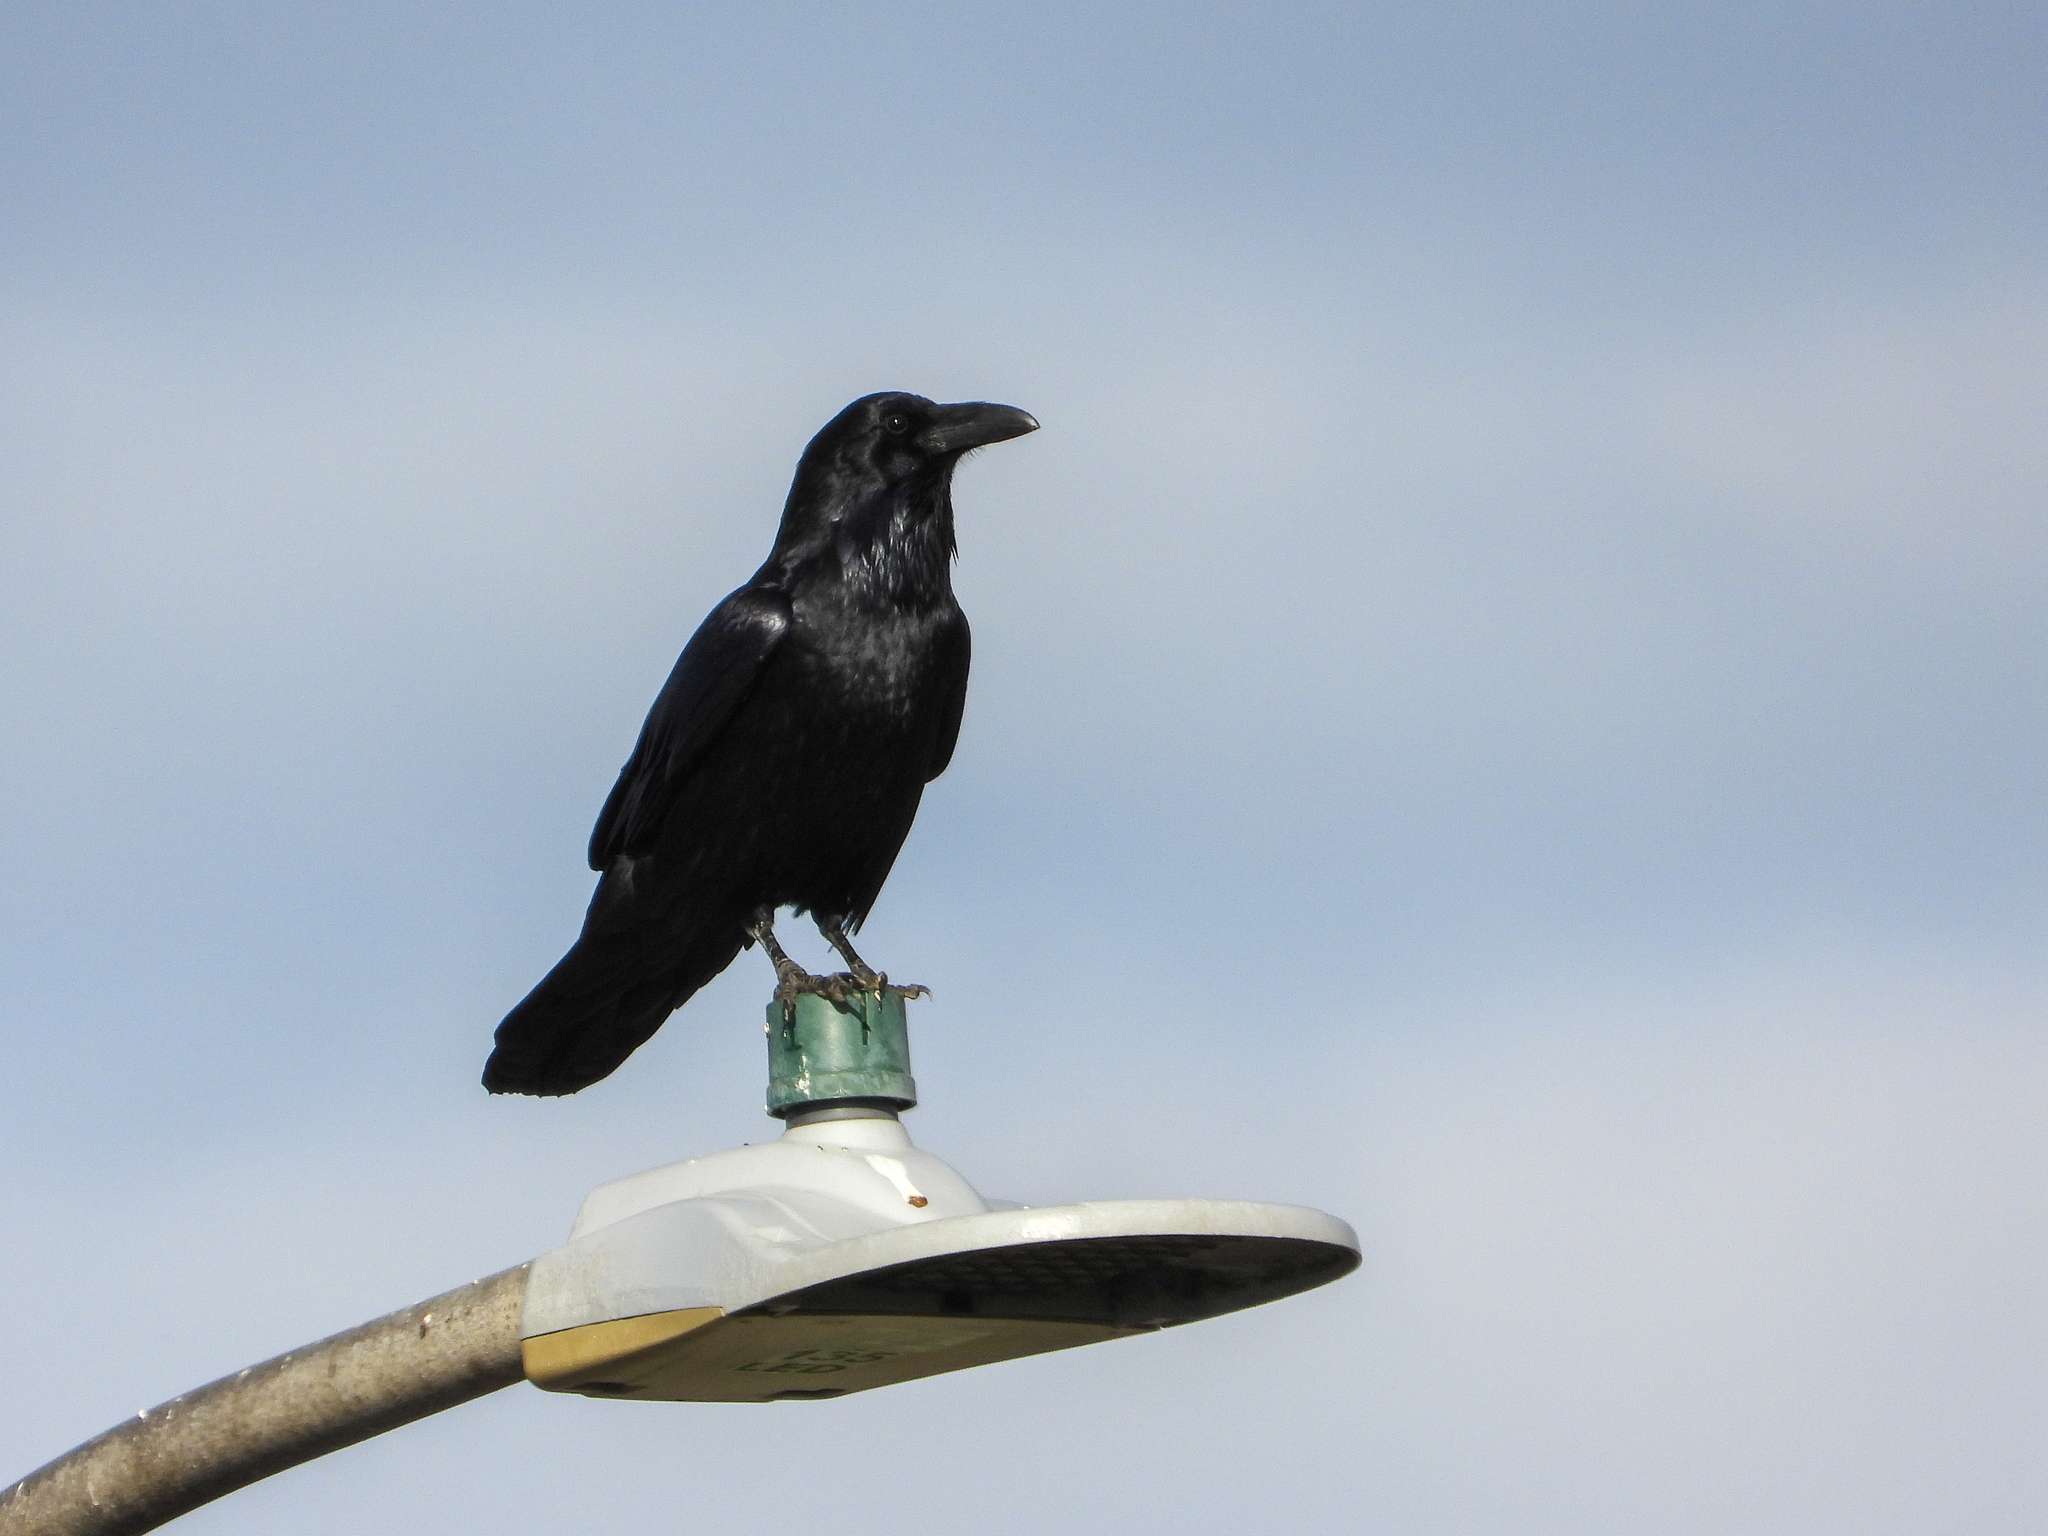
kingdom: Animalia
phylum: Chordata
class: Aves
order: Passeriformes
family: Corvidae
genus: Corvus
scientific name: Corvus corax
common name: Common raven
